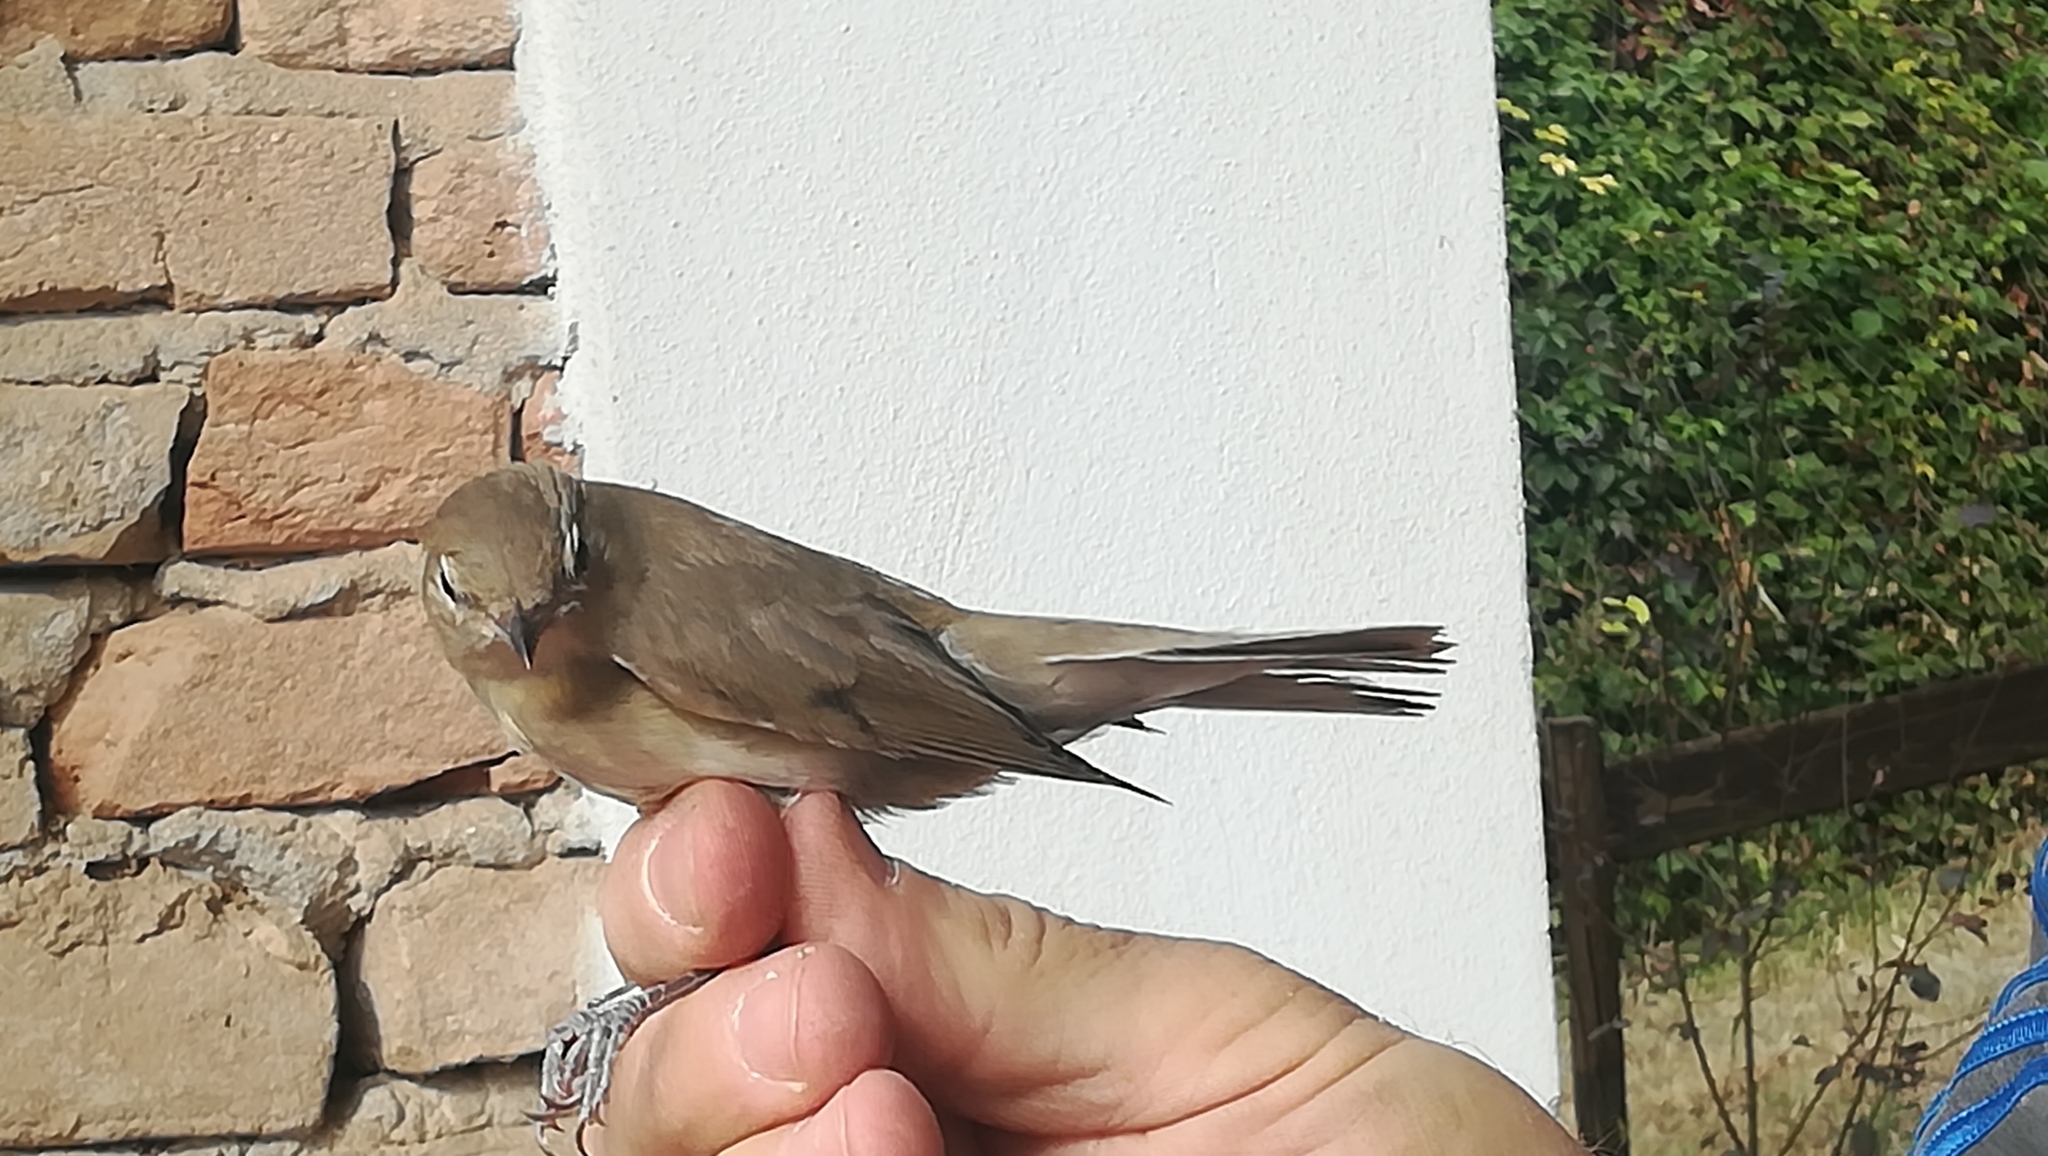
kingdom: Animalia
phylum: Chordata
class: Aves
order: Passeriformes
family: Sylviidae
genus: Sylvia
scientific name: Sylvia borin
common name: Garden warbler
